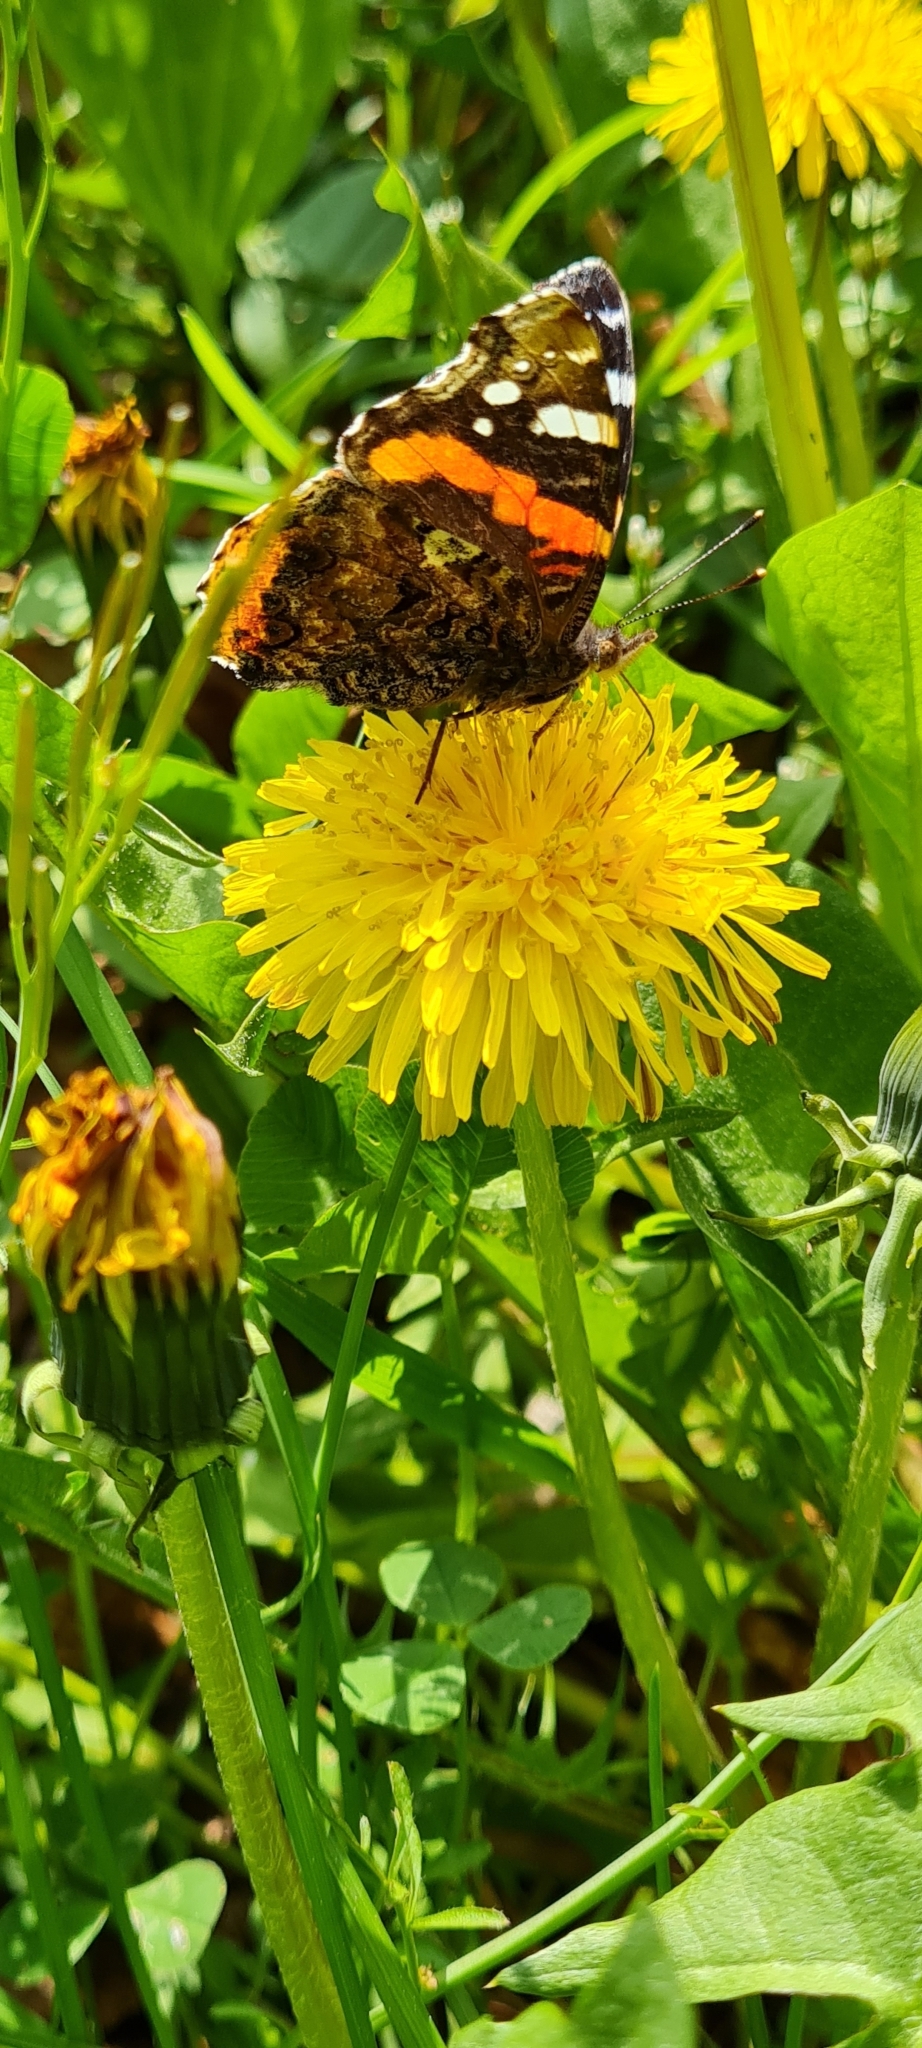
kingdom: Animalia
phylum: Arthropoda
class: Insecta
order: Lepidoptera
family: Nymphalidae
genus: Vanessa
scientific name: Vanessa atalanta
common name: Red admiral
